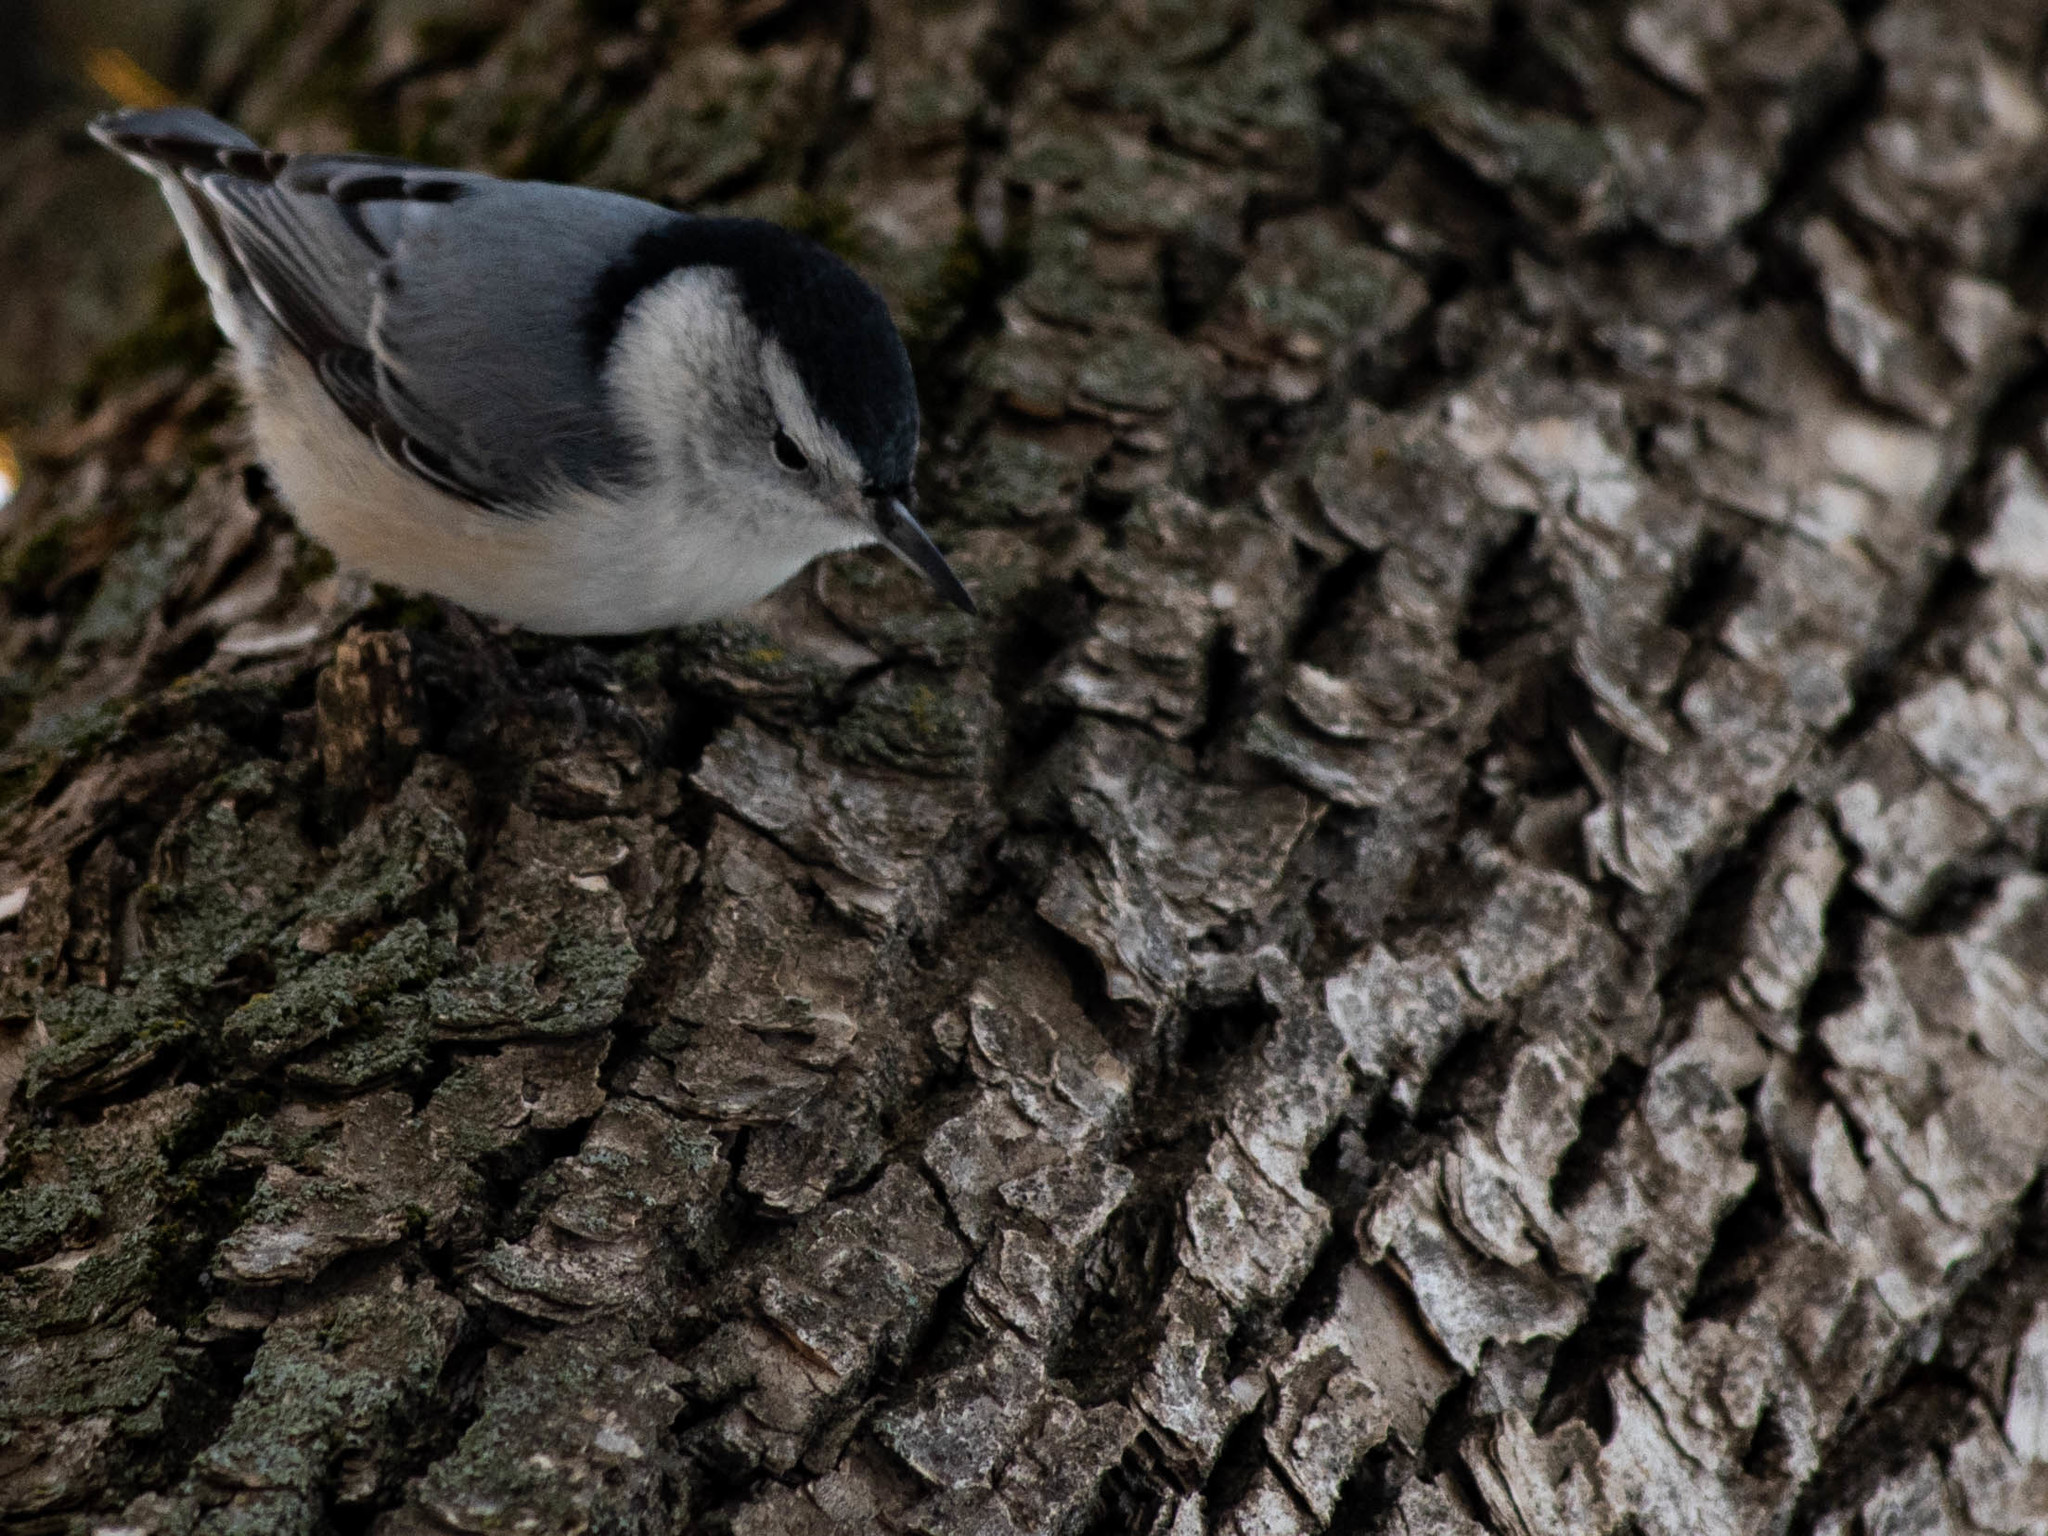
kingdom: Animalia
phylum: Chordata
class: Aves
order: Passeriformes
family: Sittidae
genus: Sitta
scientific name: Sitta carolinensis
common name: White-breasted nuthatch
